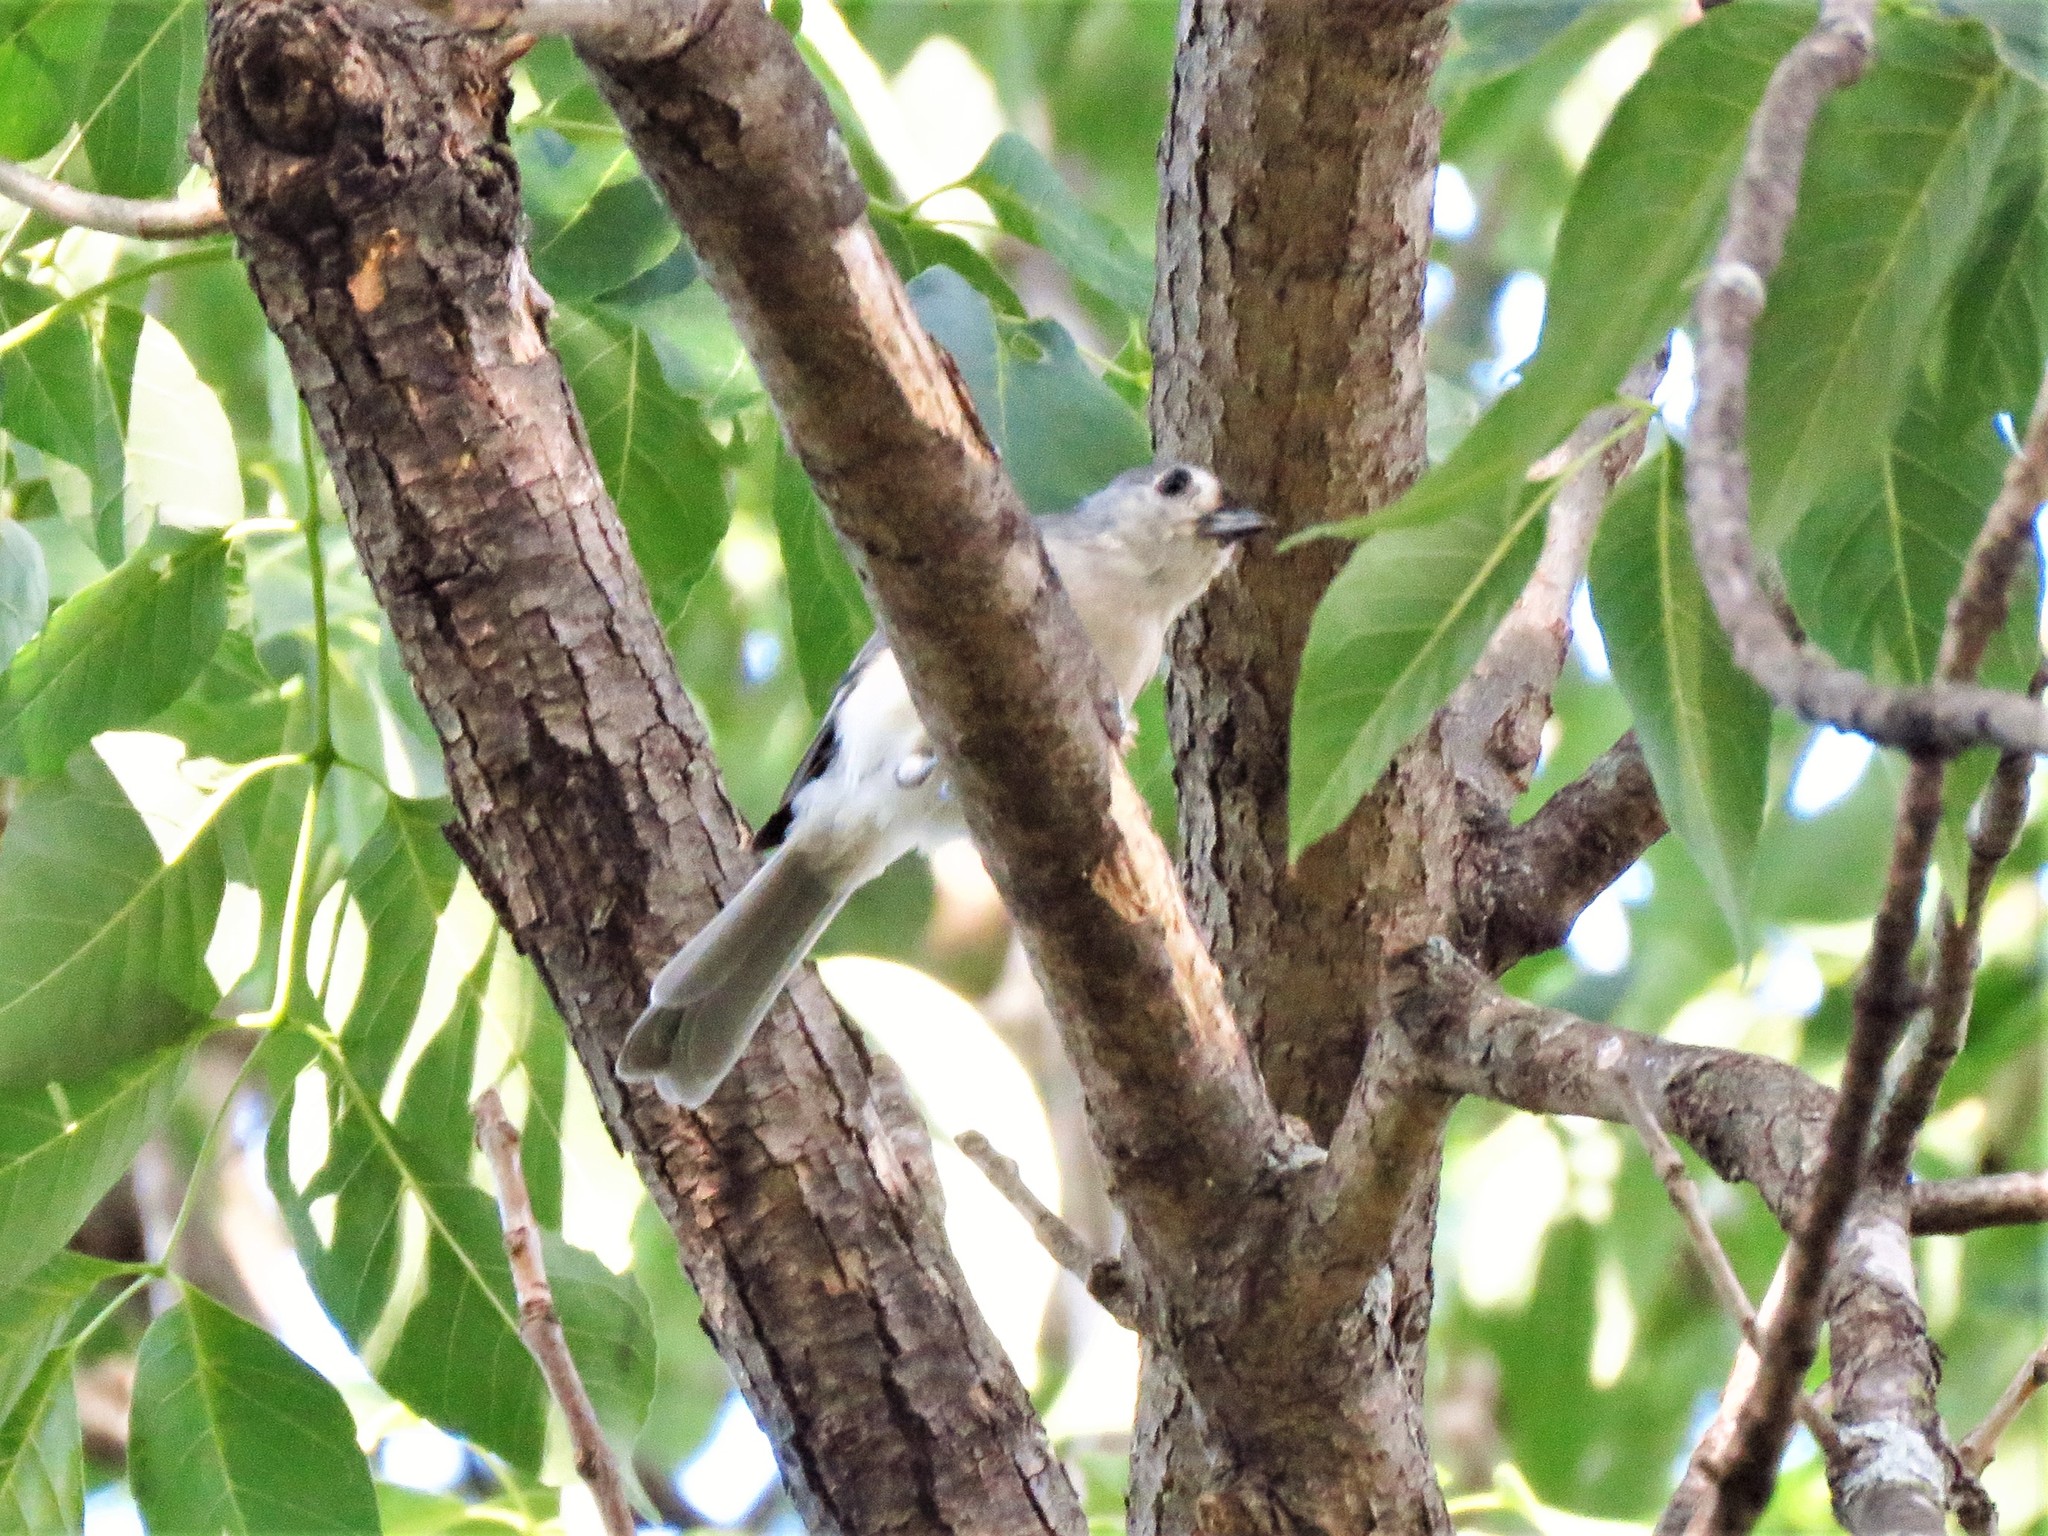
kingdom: Animalia
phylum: Chordata
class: Aves
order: Passeriformes
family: Paridae
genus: Baeolophus
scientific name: Baeolophus bicolor
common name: Tufted titmouse
